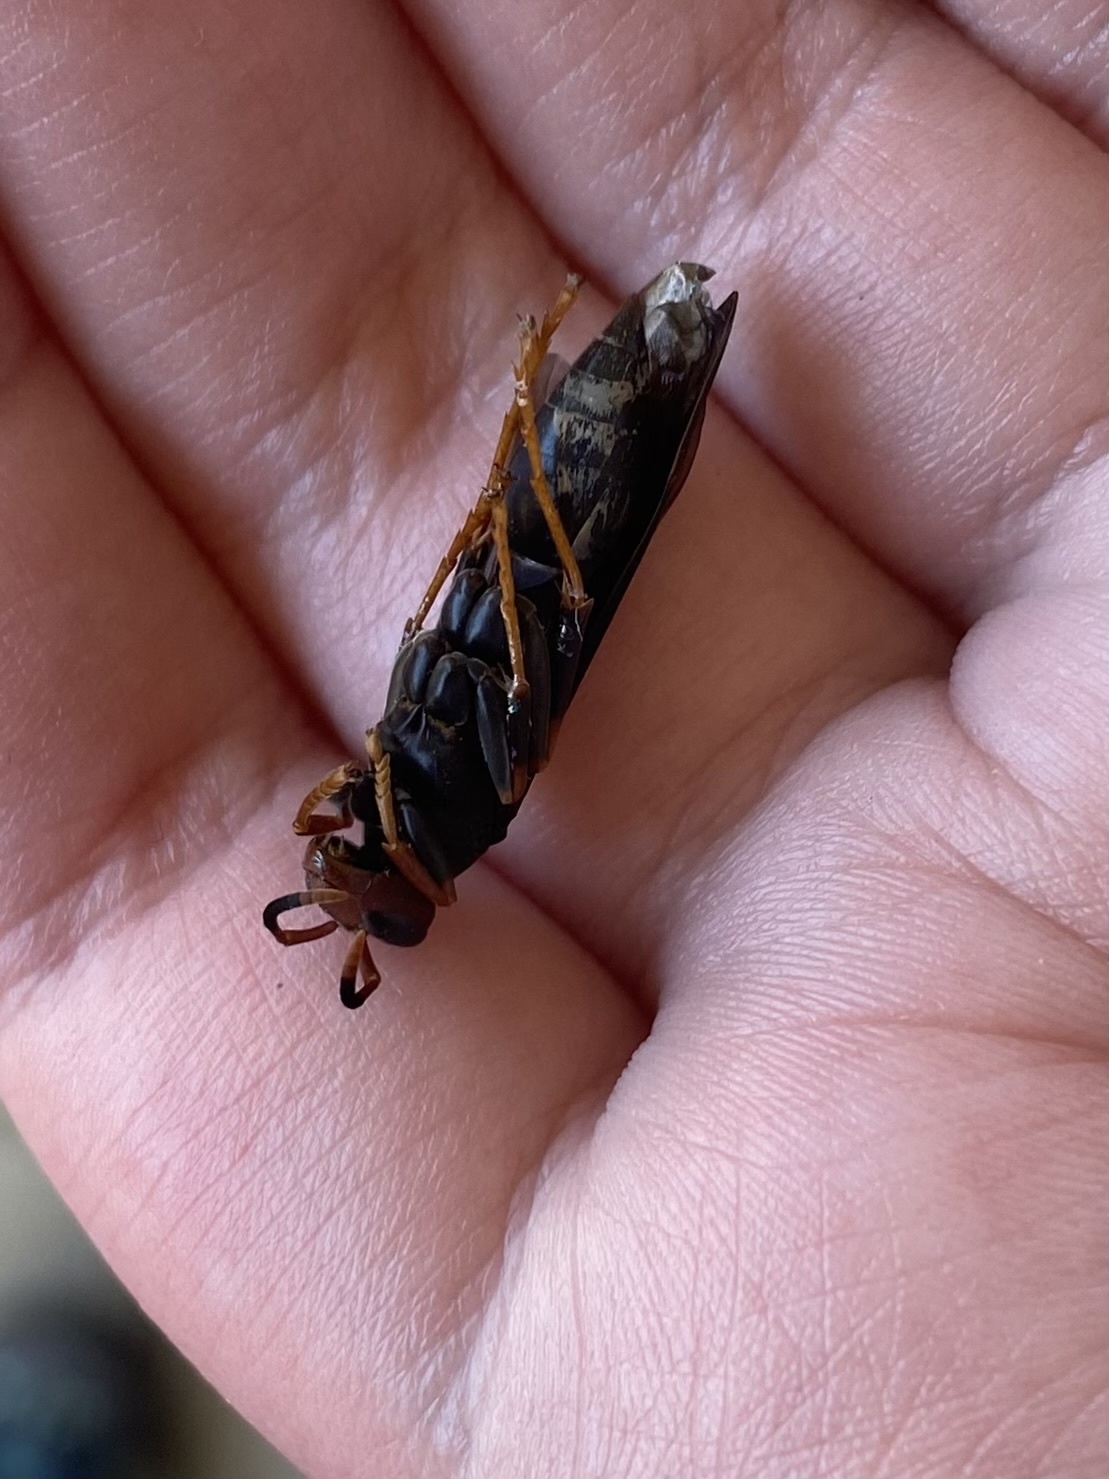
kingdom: Animalia
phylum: Arthropoda
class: Insecta
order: Hymenoptera
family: Eumenidae
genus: Polistes
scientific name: Polistes erythrocephalus
